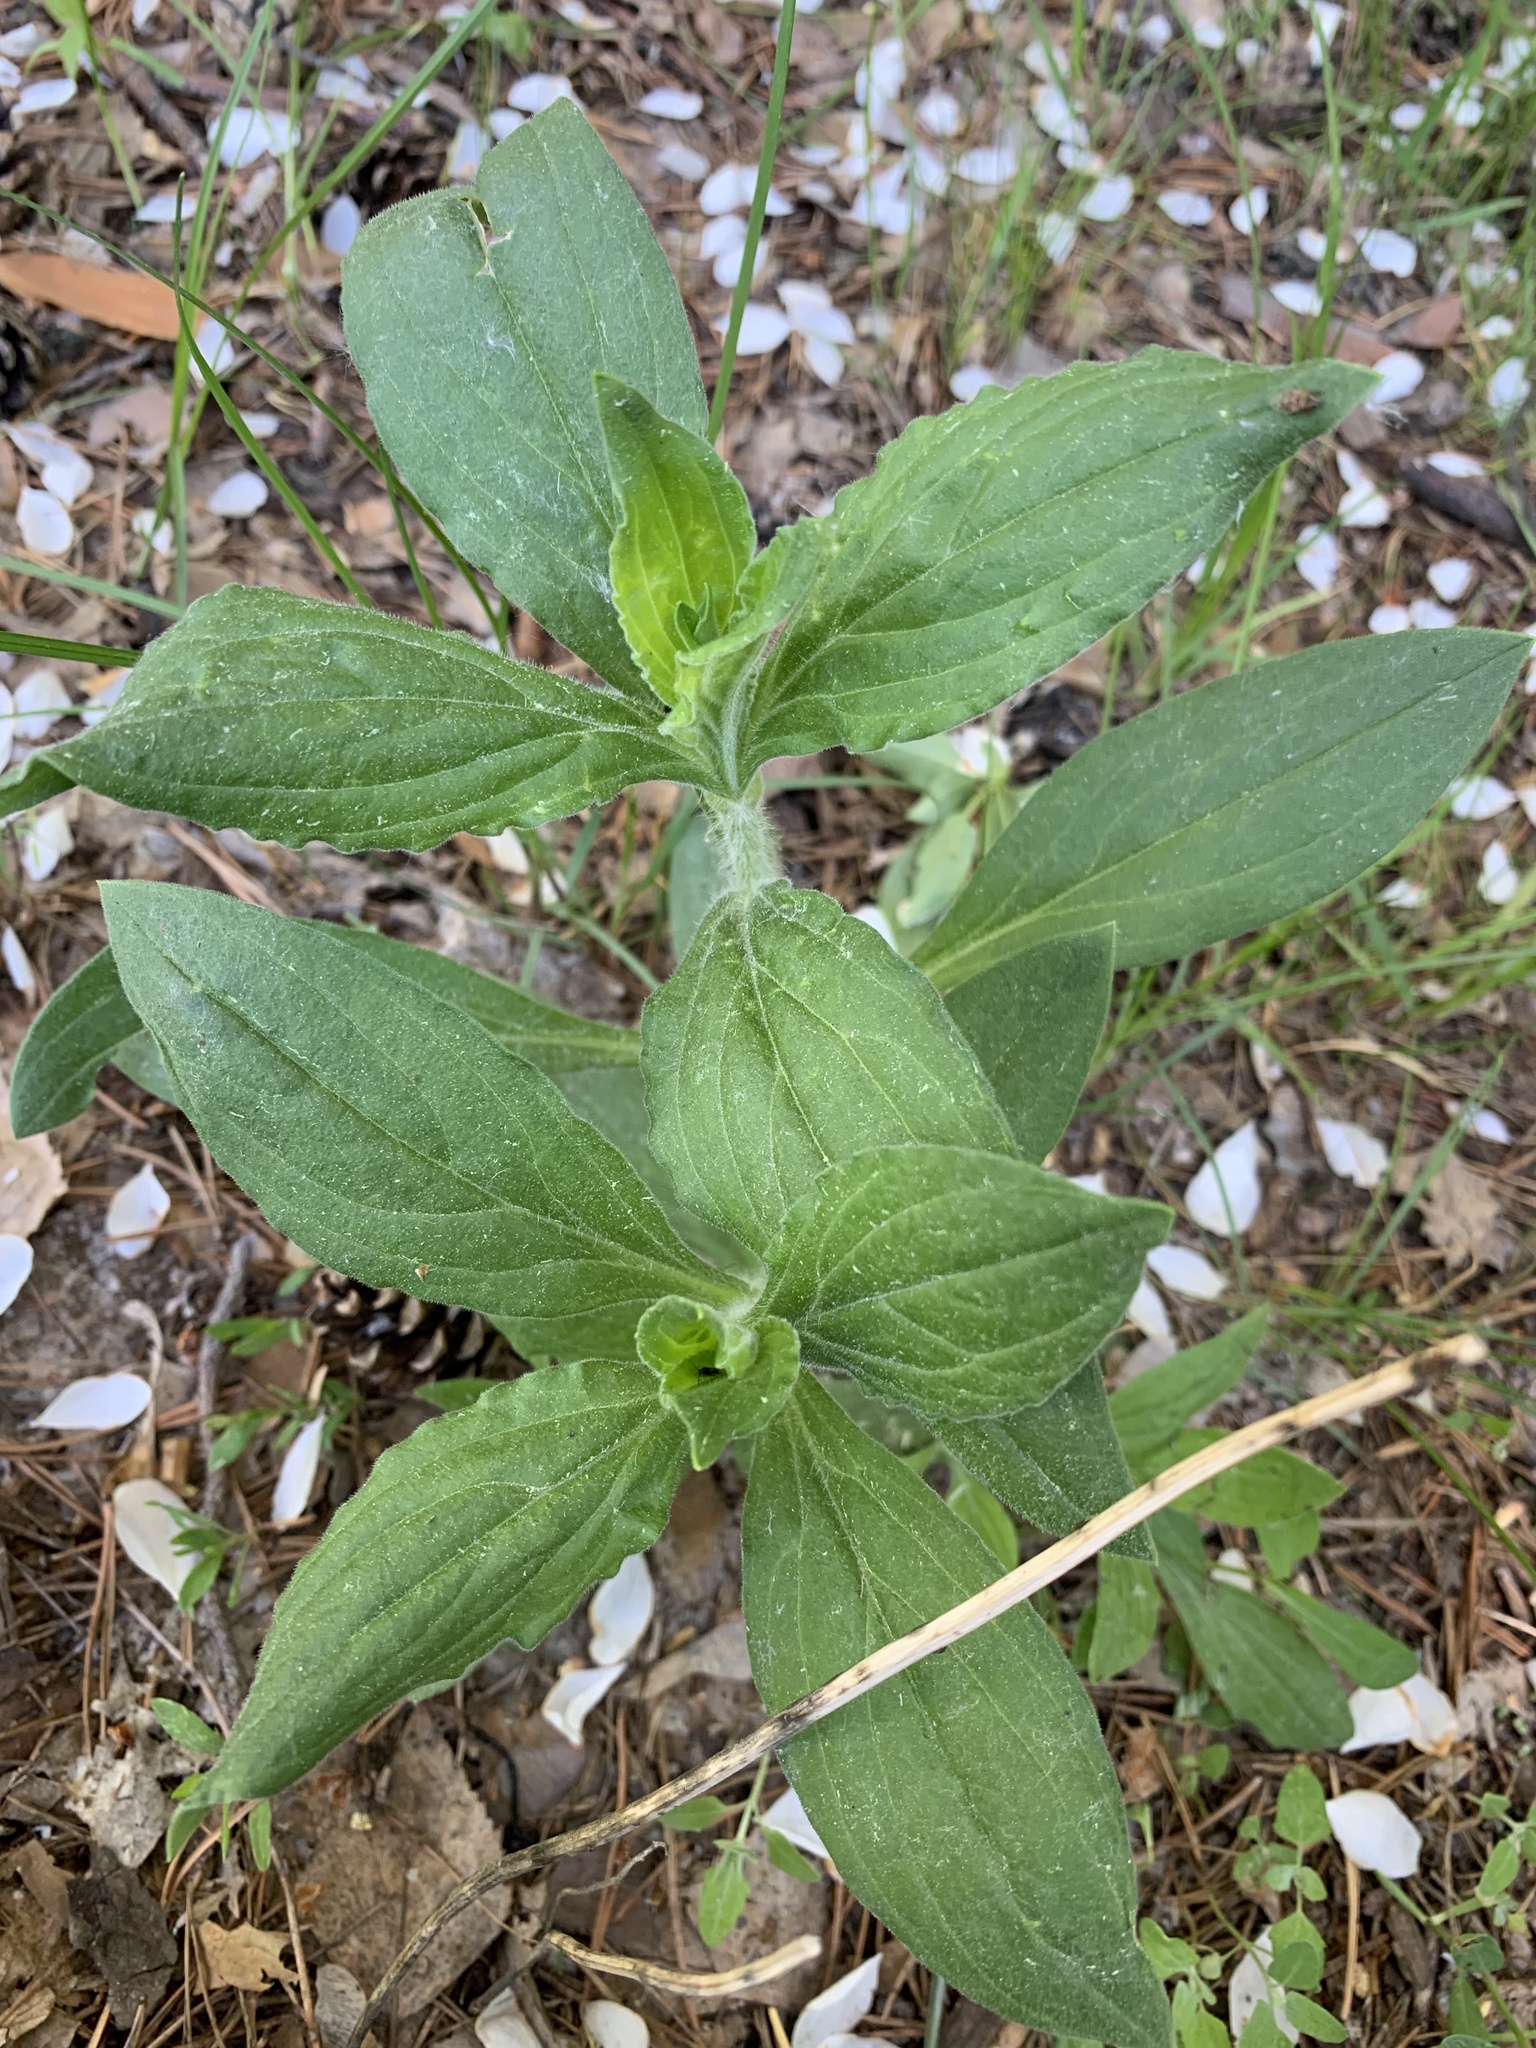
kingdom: Plantae
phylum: Tracheophyta
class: Magnoliopsida
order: Caryophyllales
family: Caryophyllaceae
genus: Silene
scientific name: Silene latifolia
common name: White campion
